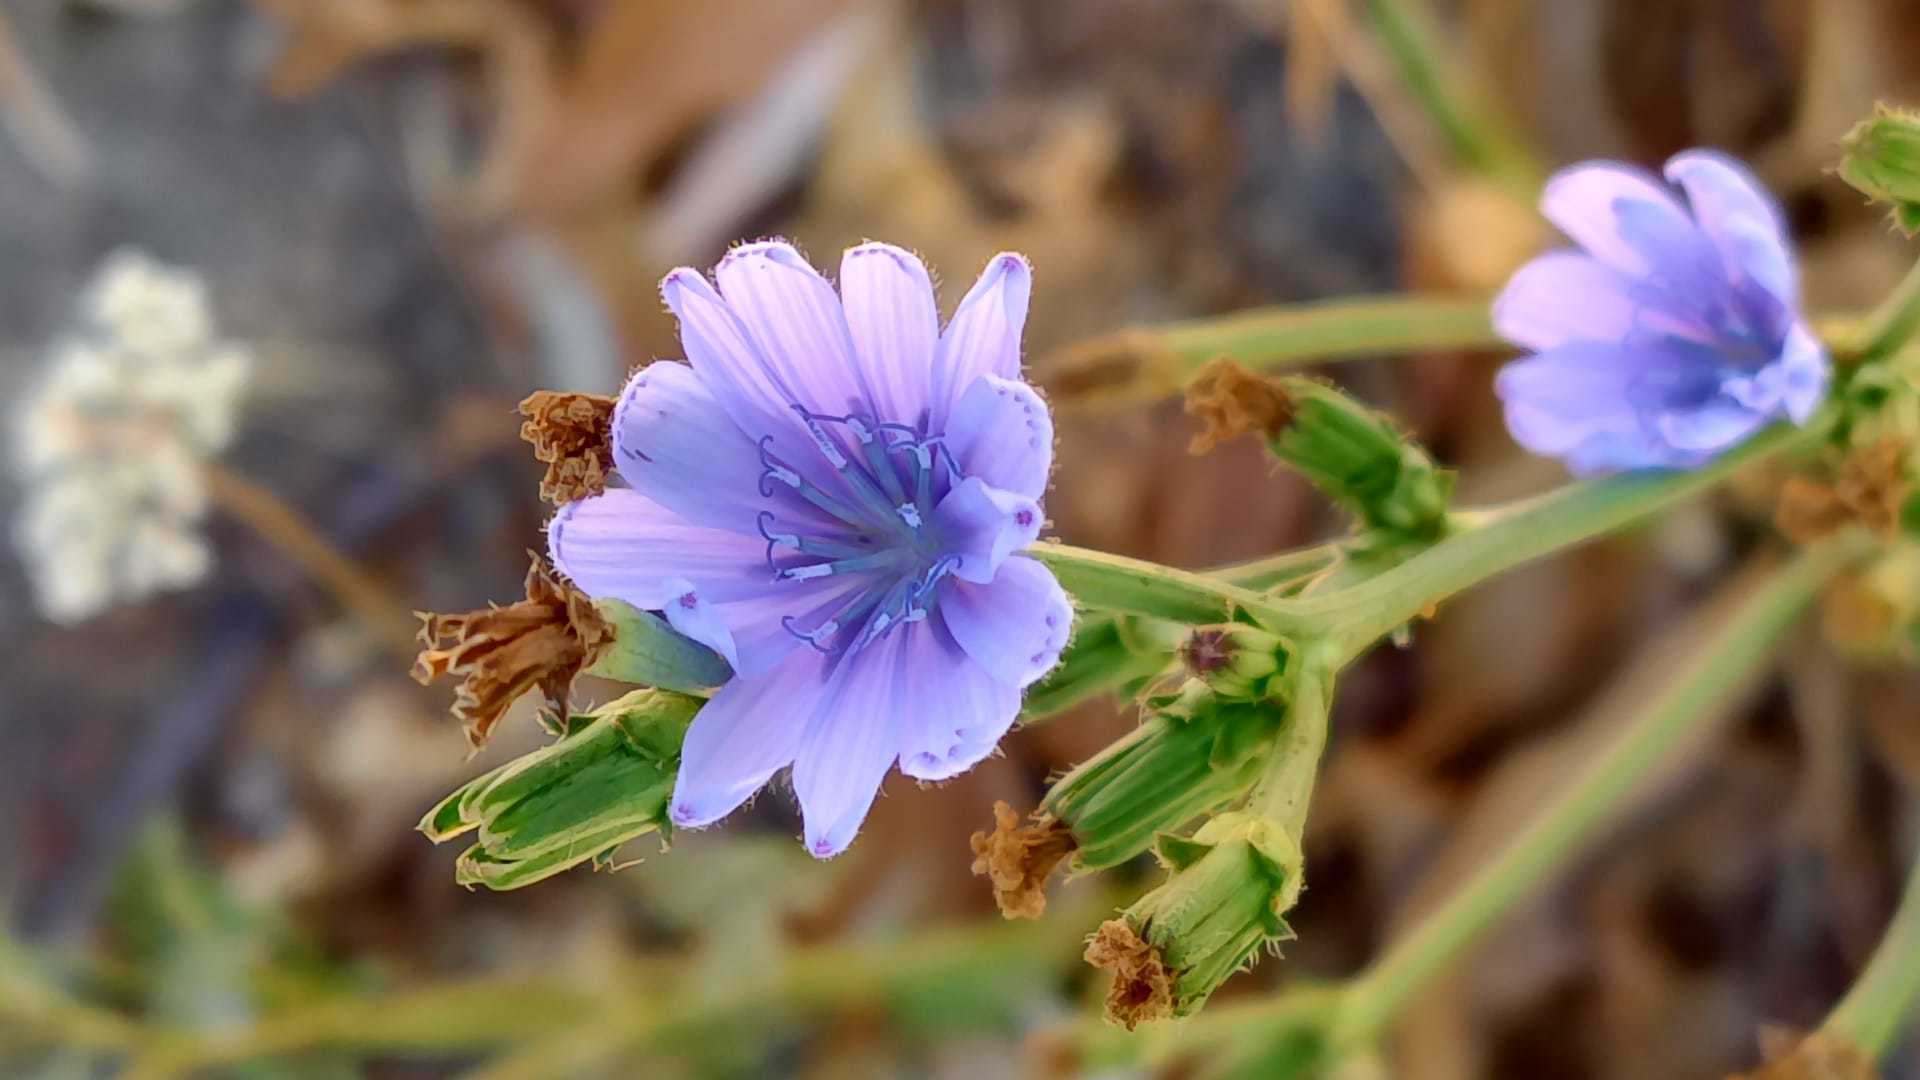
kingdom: Plantae
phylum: Tracheophyta
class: Magnoliopsida
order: Asterales
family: Asteraceae
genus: Cichorium
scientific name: Cichorium intybus
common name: Chicory
